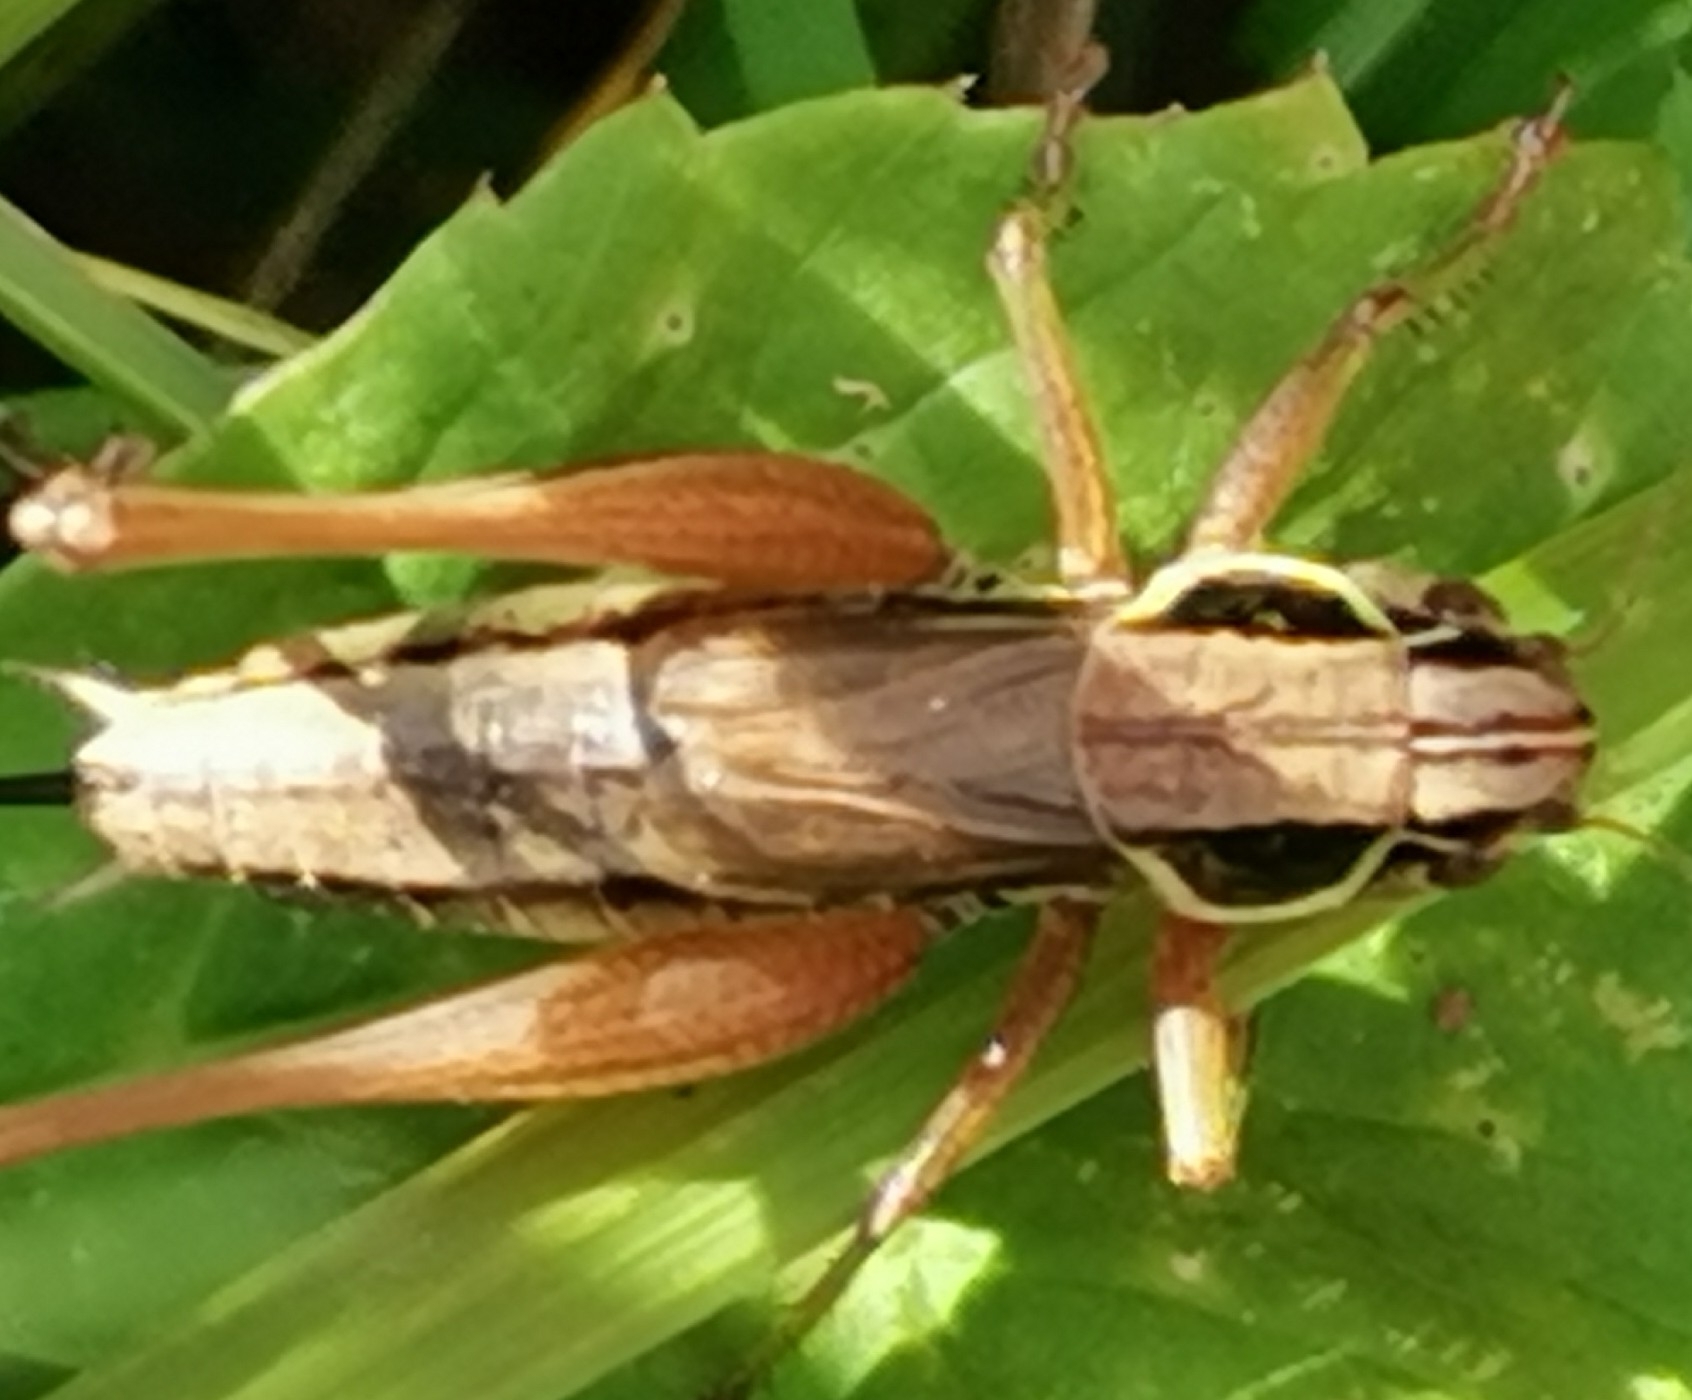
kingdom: Animalia
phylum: Arthropoda
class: Insecta
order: Orthoptera
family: Tettigoniidae
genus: Roeseliana
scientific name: Roeseliana roeselii
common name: Roesel's bush cricket
